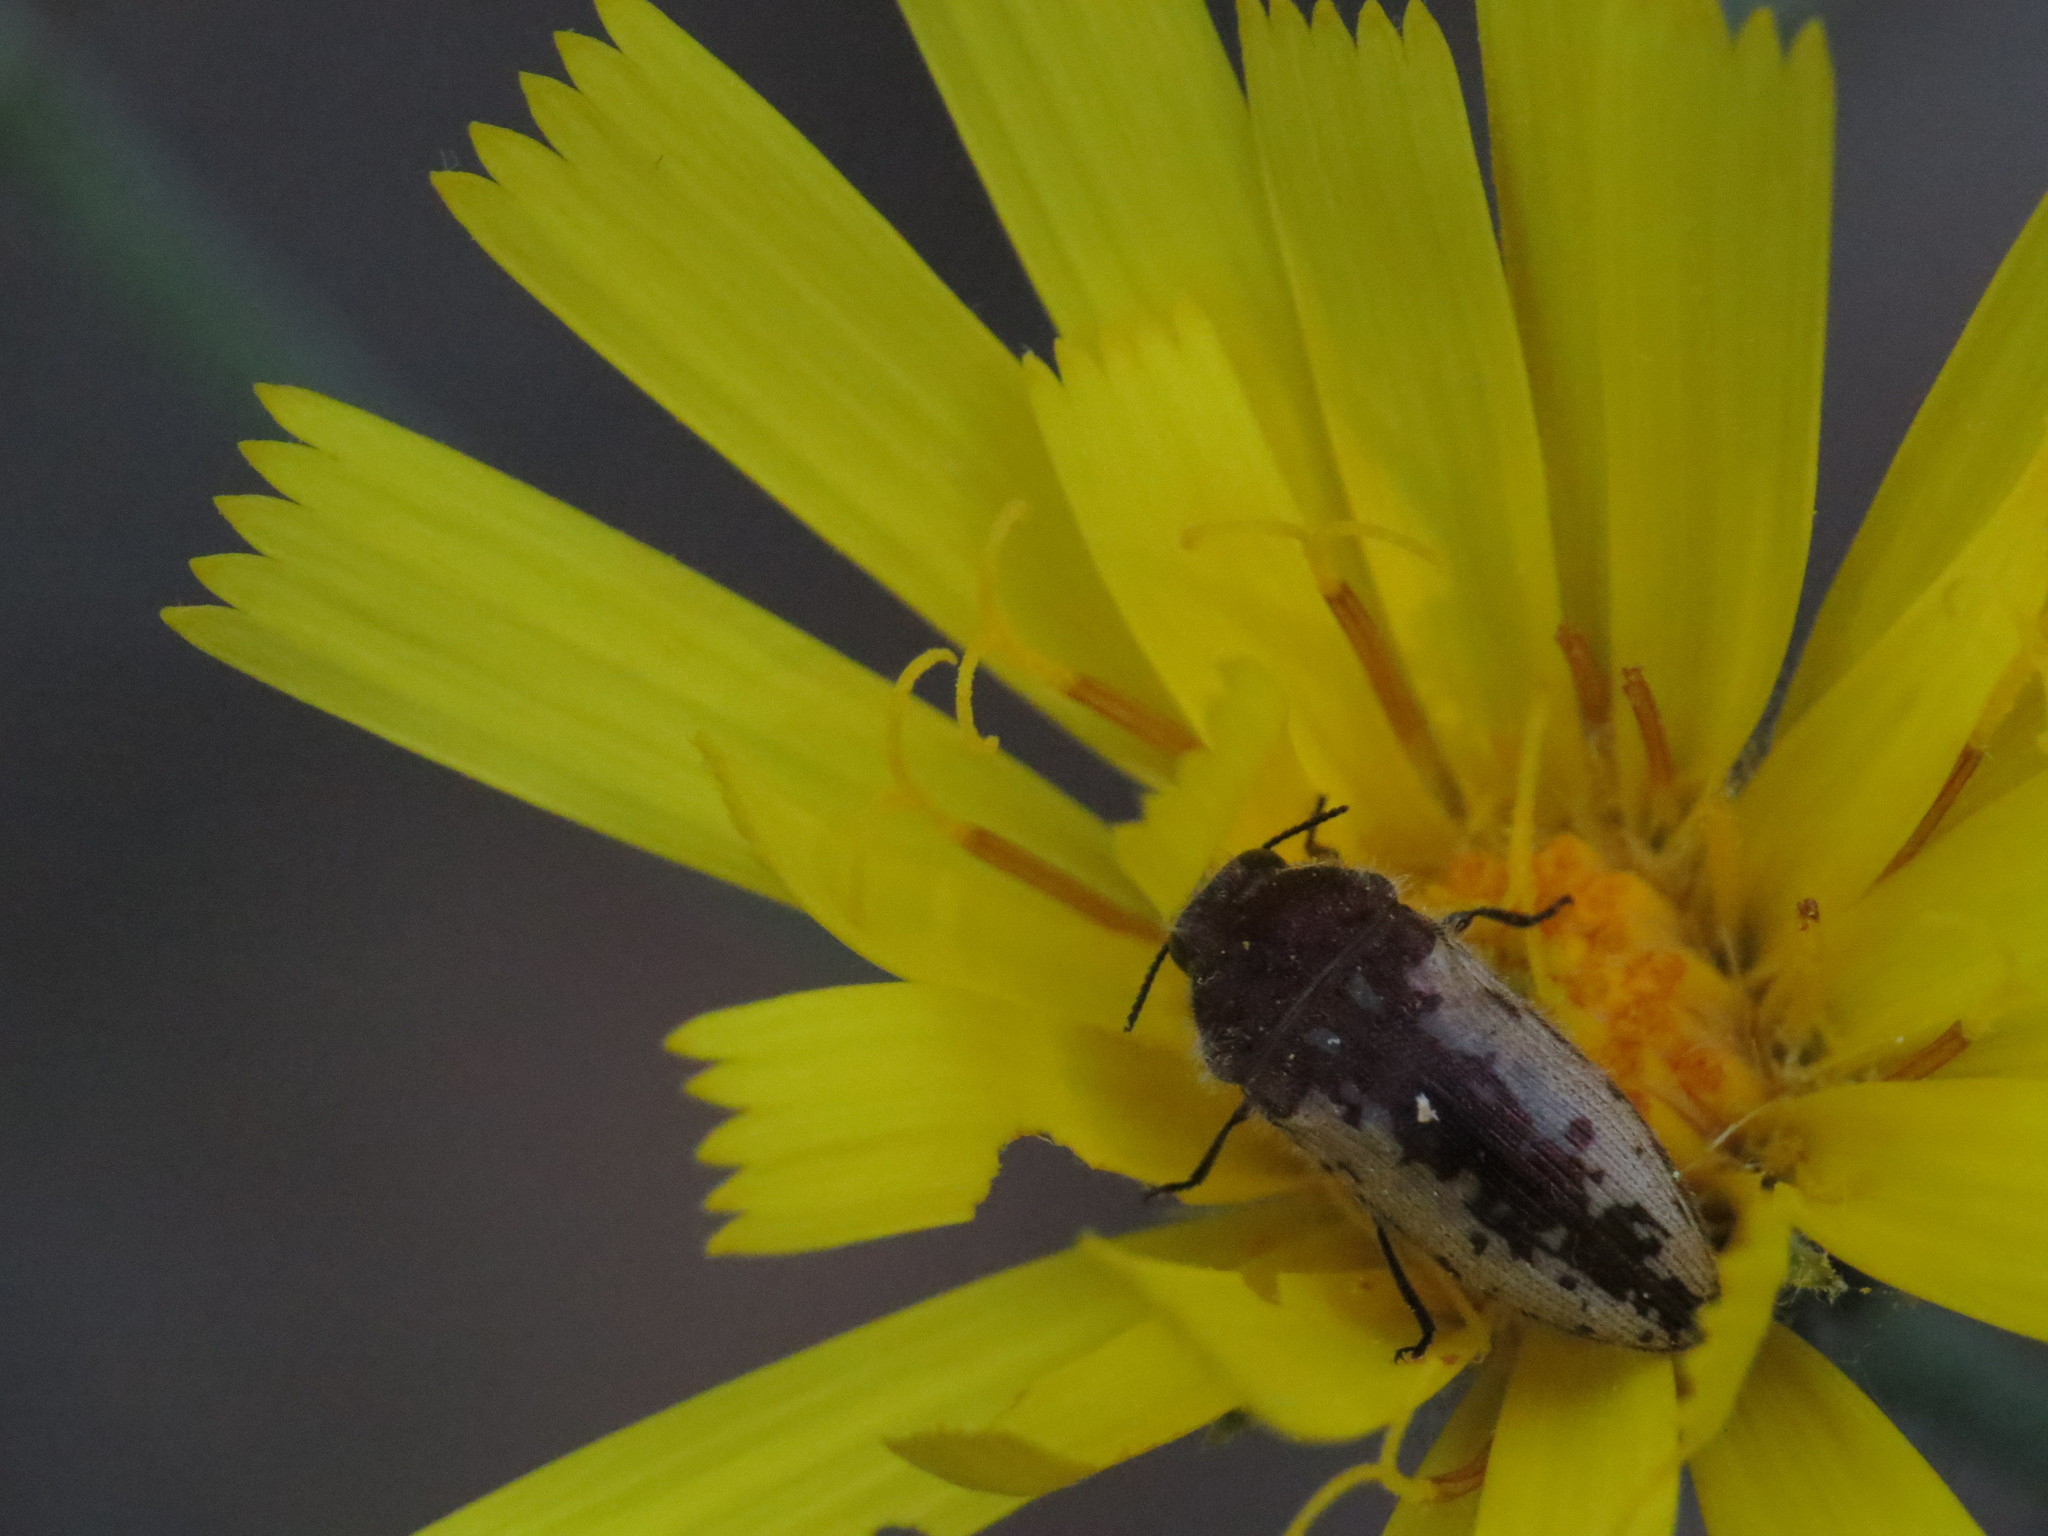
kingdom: Animalia
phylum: Arthropoda
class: Insecta
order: Coleoptera
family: Buprestidae
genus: Acmaeodera
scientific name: Acmaeodera pilosellae
